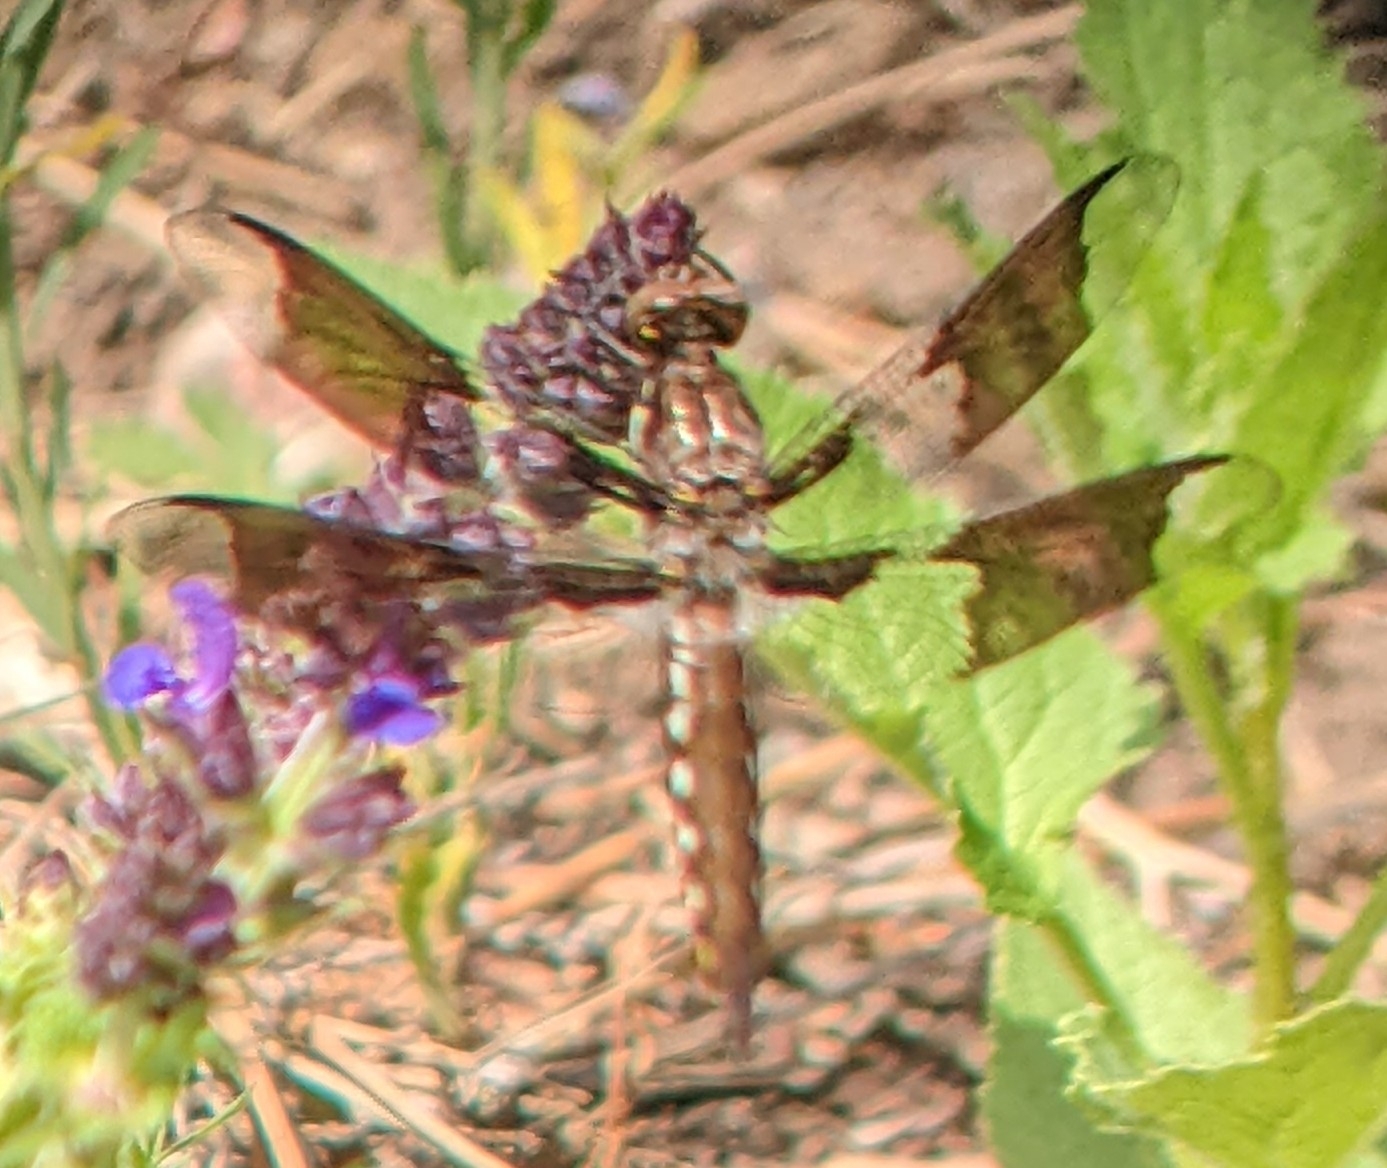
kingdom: Animalia
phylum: Arthropoda
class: Insecta
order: Odonata
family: Libellulidae
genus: Plathemis
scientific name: Plathemis lydia
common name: Common whitetail
